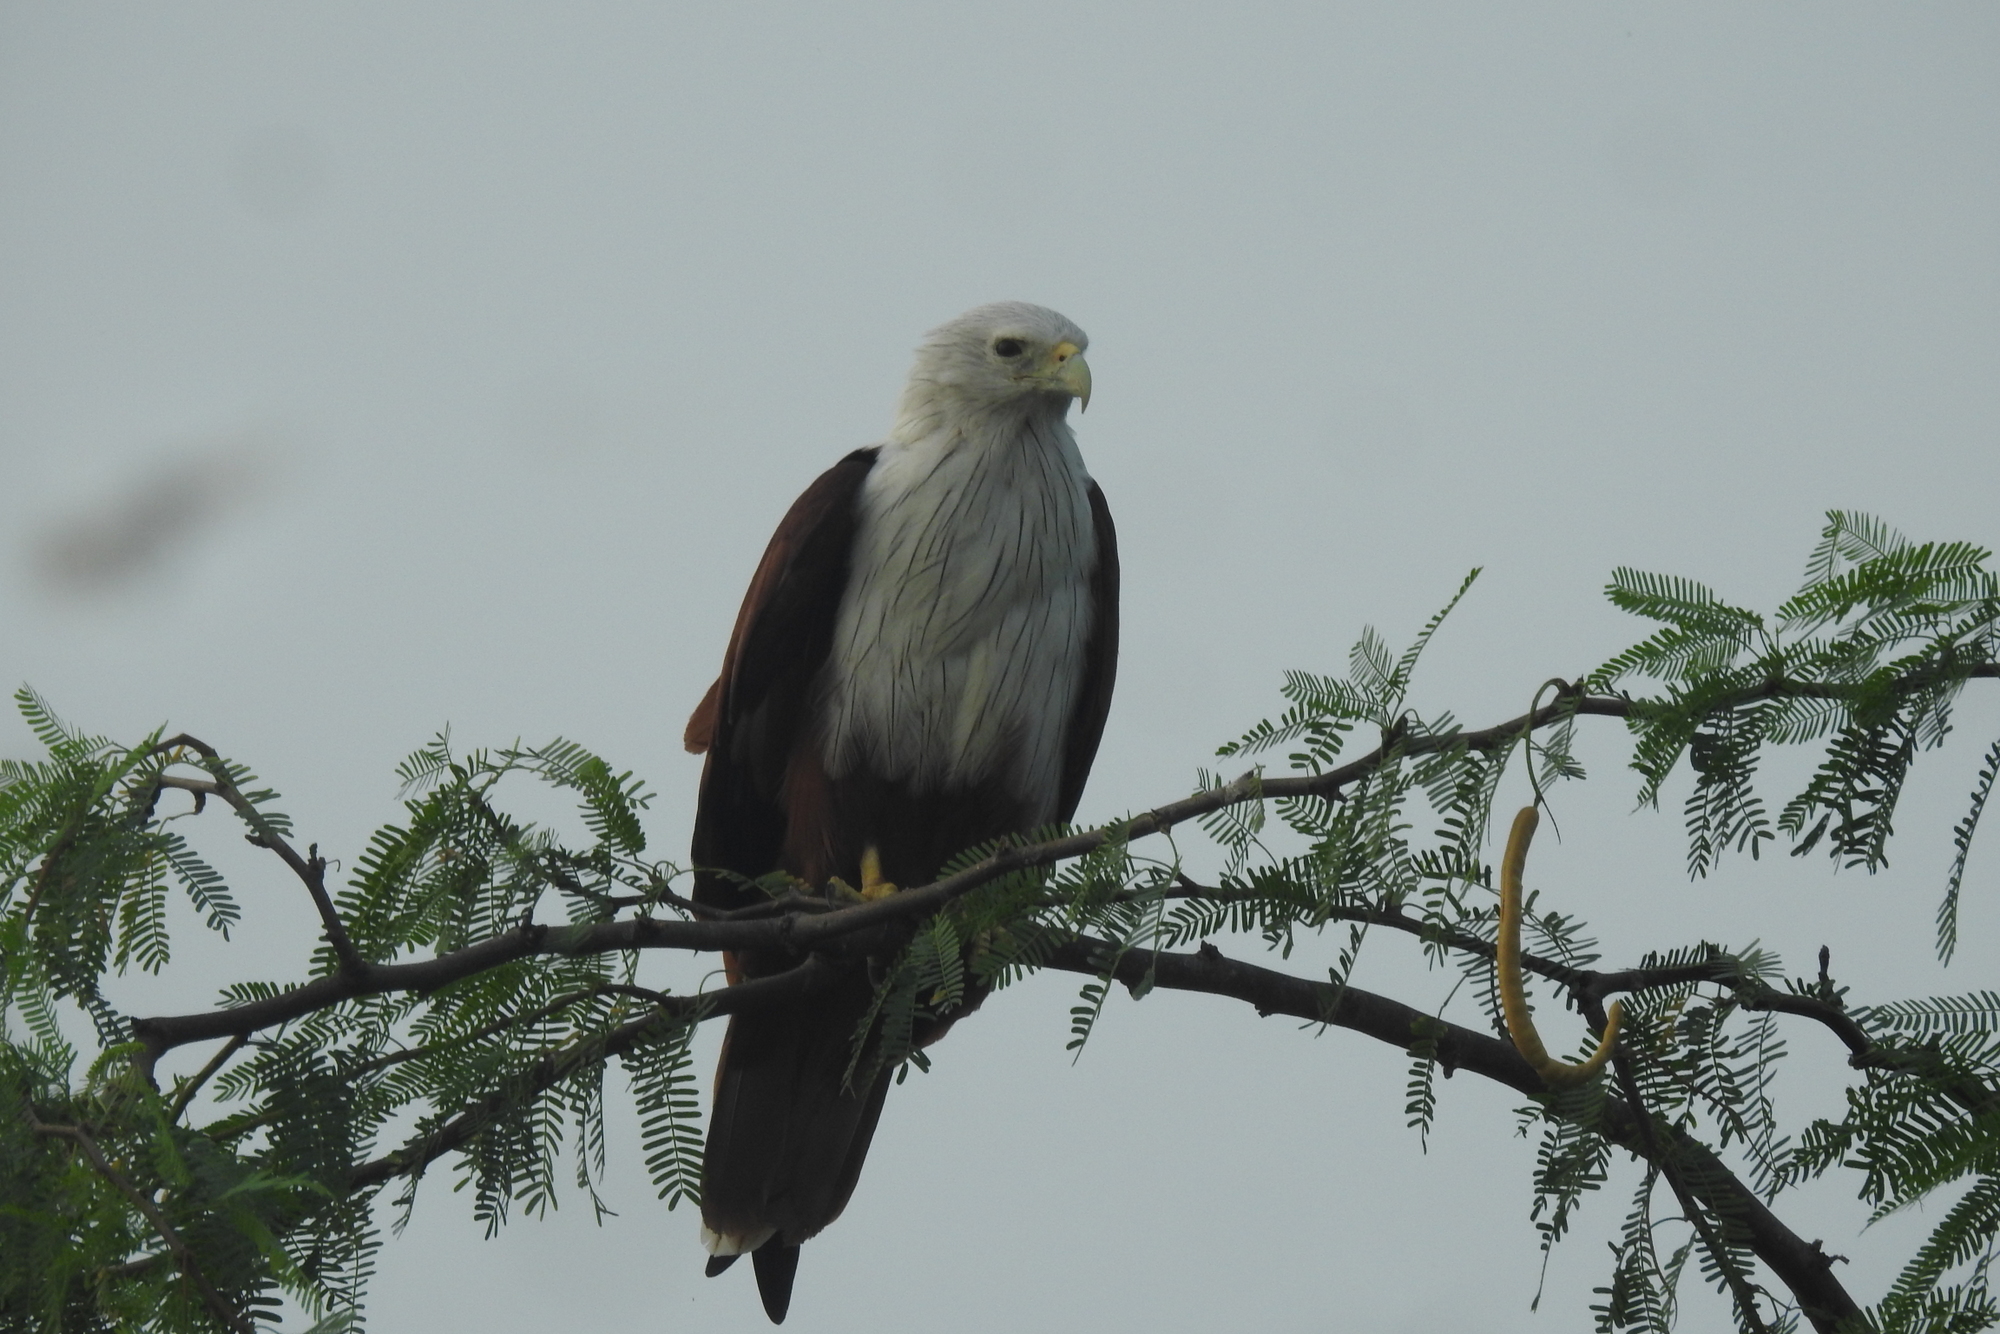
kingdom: Animalia
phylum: Chordata
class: Aves
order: Accipitriformes
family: Accipitridae
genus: Haliastur
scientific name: Haliastur indus
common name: Brahminy kite
